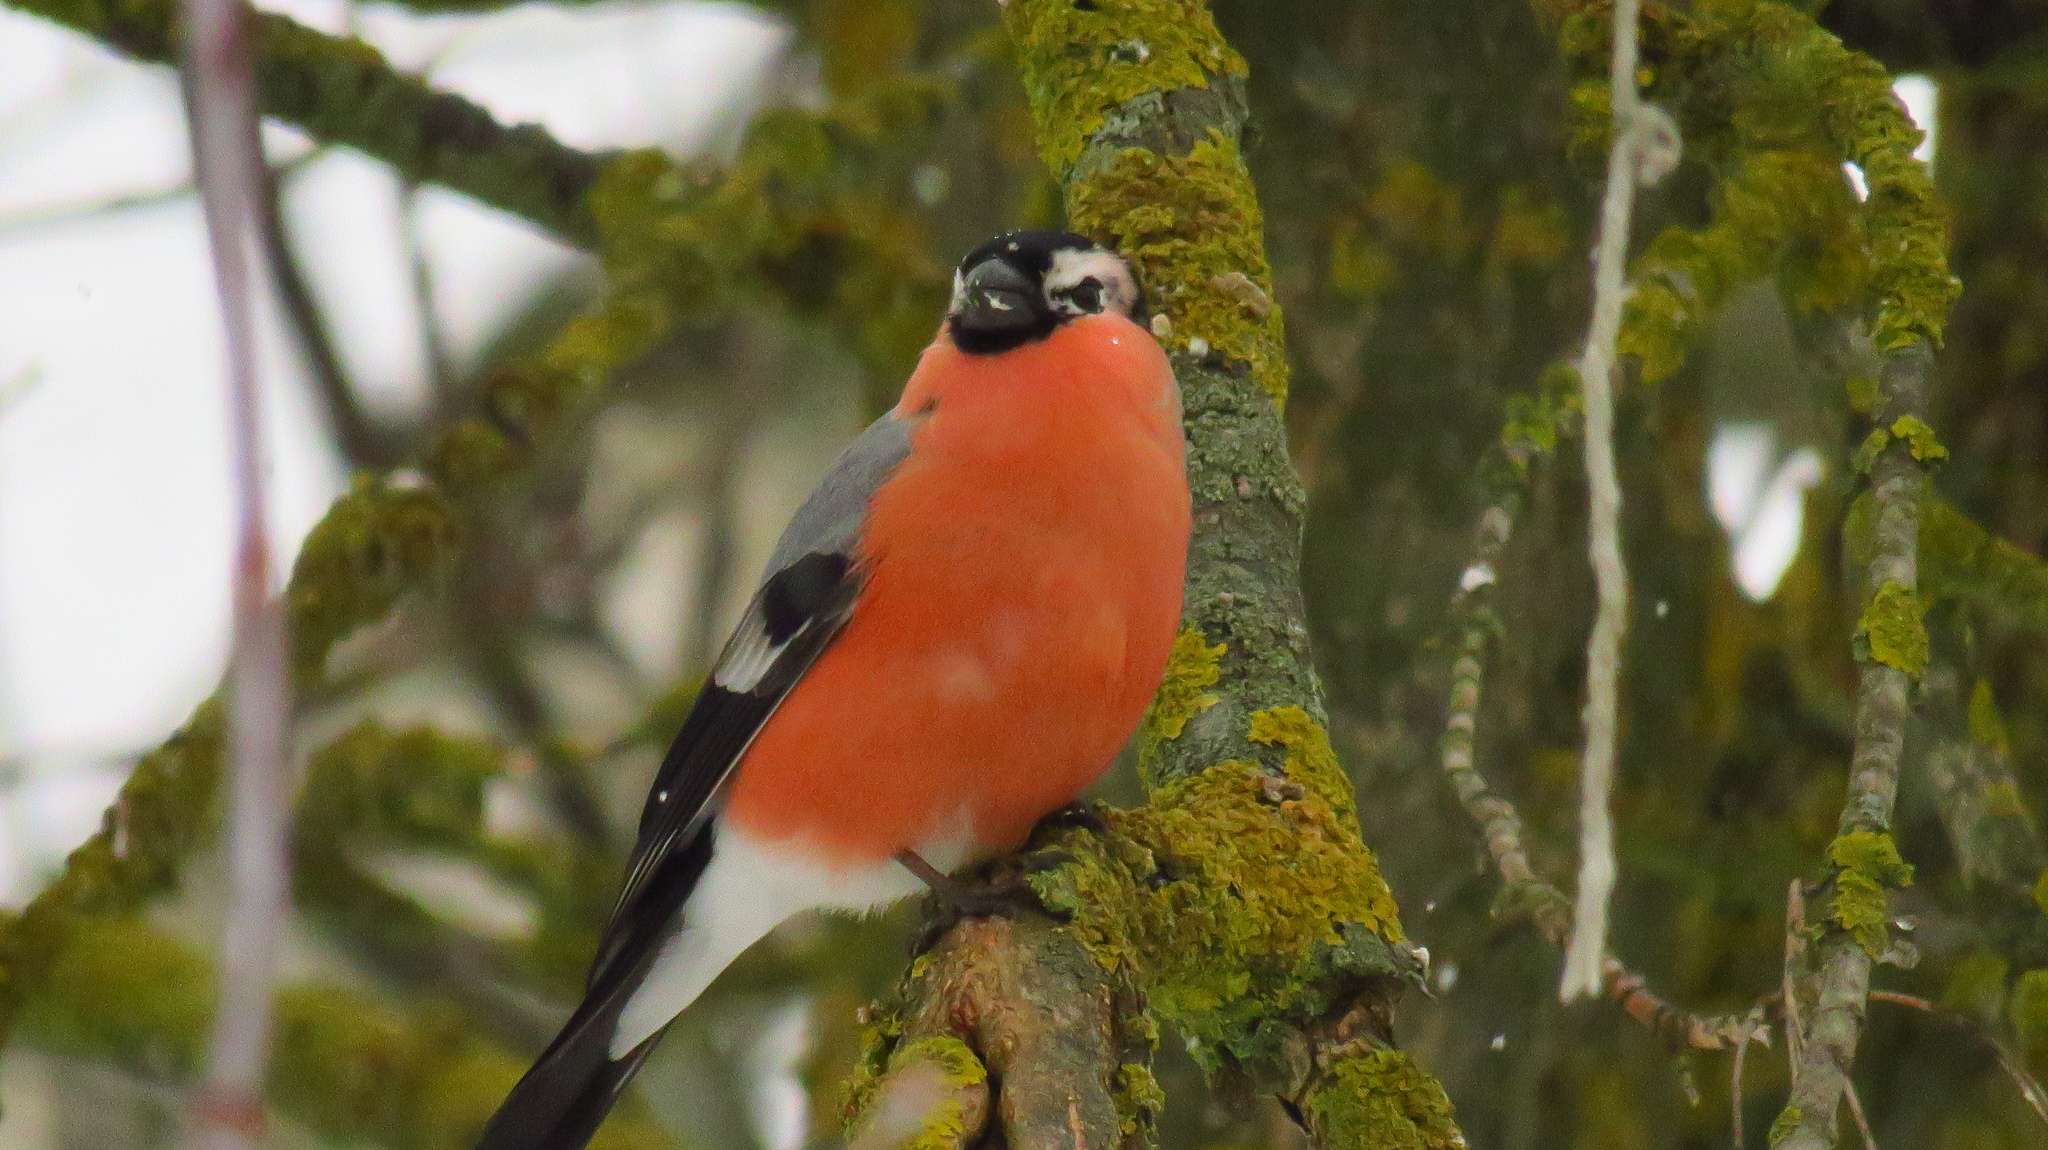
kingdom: Animalia
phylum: Chordata
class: Aves
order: Passeriformes
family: Fringillidae
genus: Pyrrhula
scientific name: Pyrrhula pyrrhula
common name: Eurasian bullfinch
